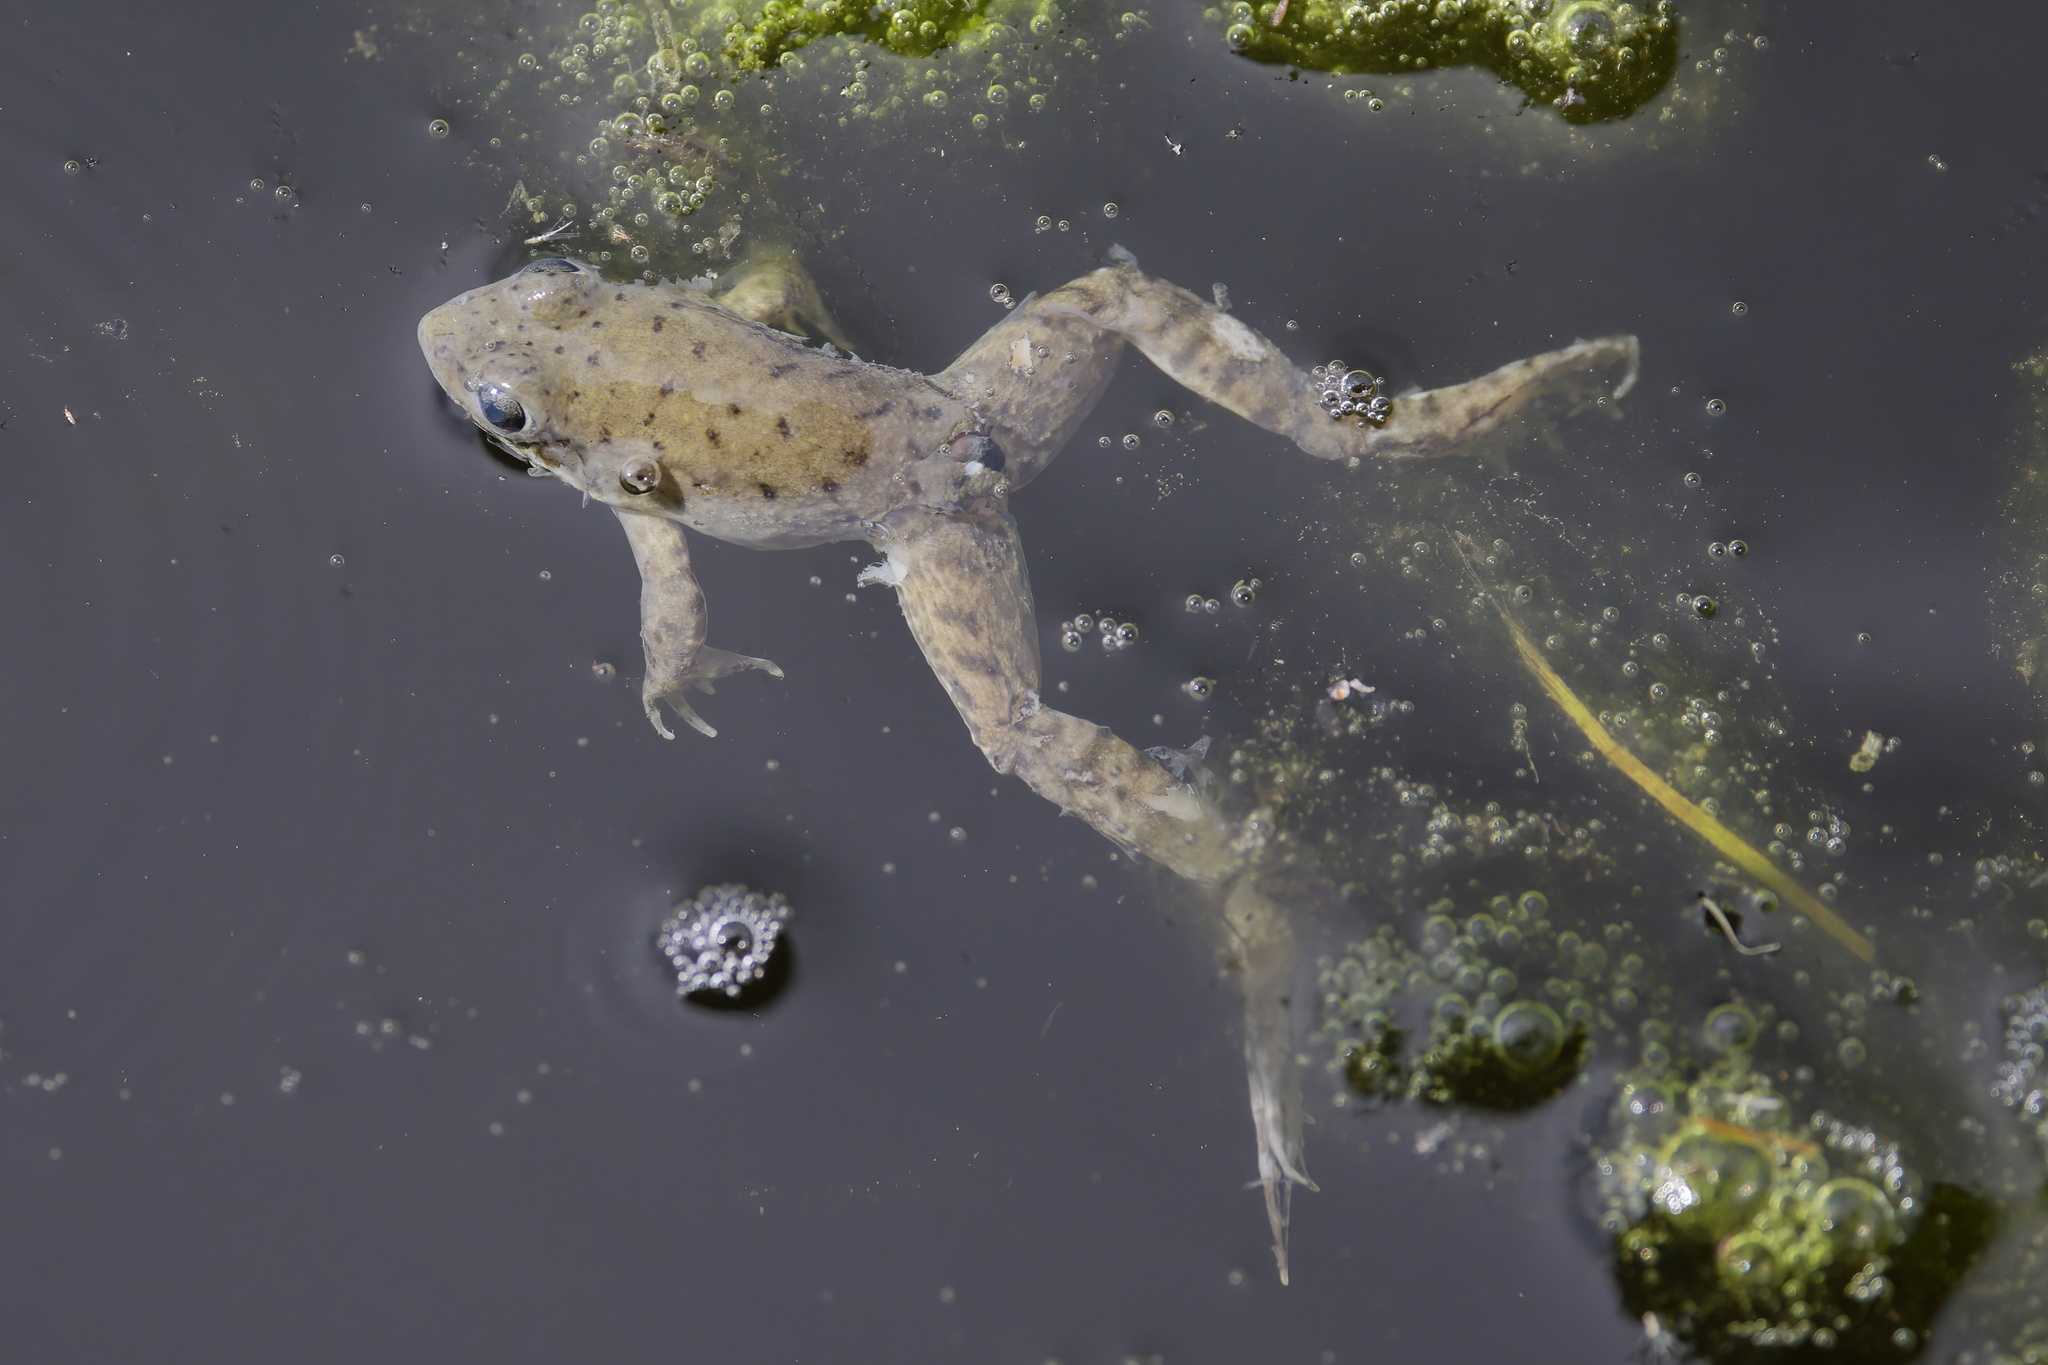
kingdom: Animalia
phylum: Chordata
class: Amphibia
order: Anura
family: Ranidae
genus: Lithobates
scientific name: Lithobates clamitans
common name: Green frog
